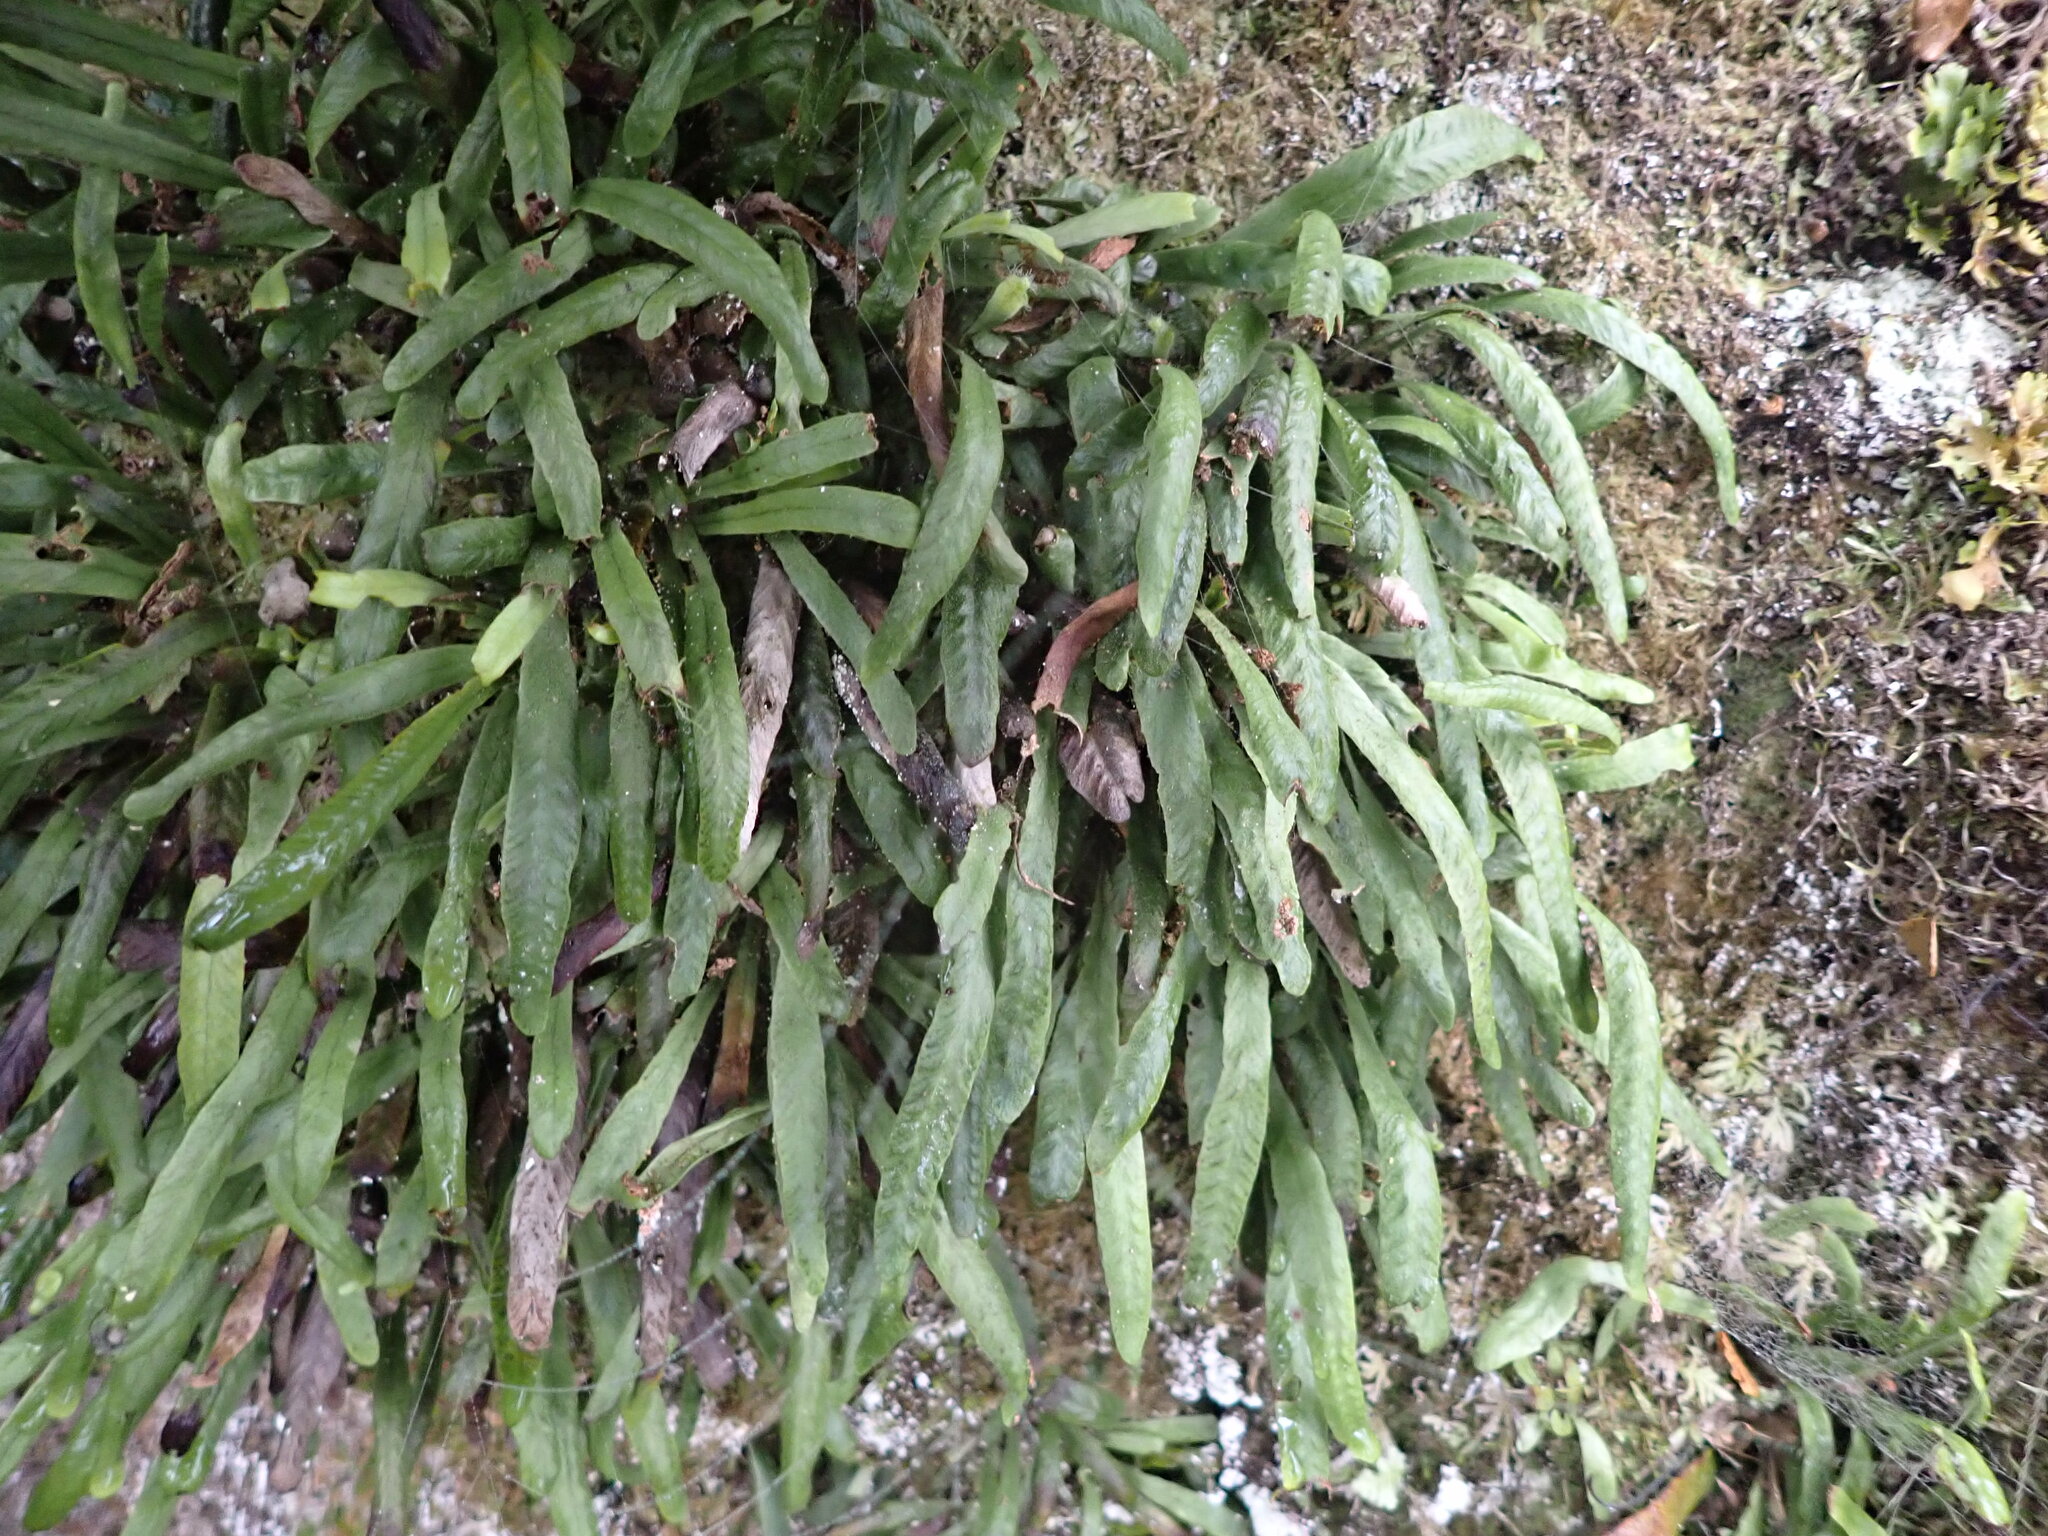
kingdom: Plantae
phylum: Tracheophyta
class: Polypodiopsida
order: Polypodiales
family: Polypodiaceae
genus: Notogrammitis
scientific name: Notogrammitis patagonica
